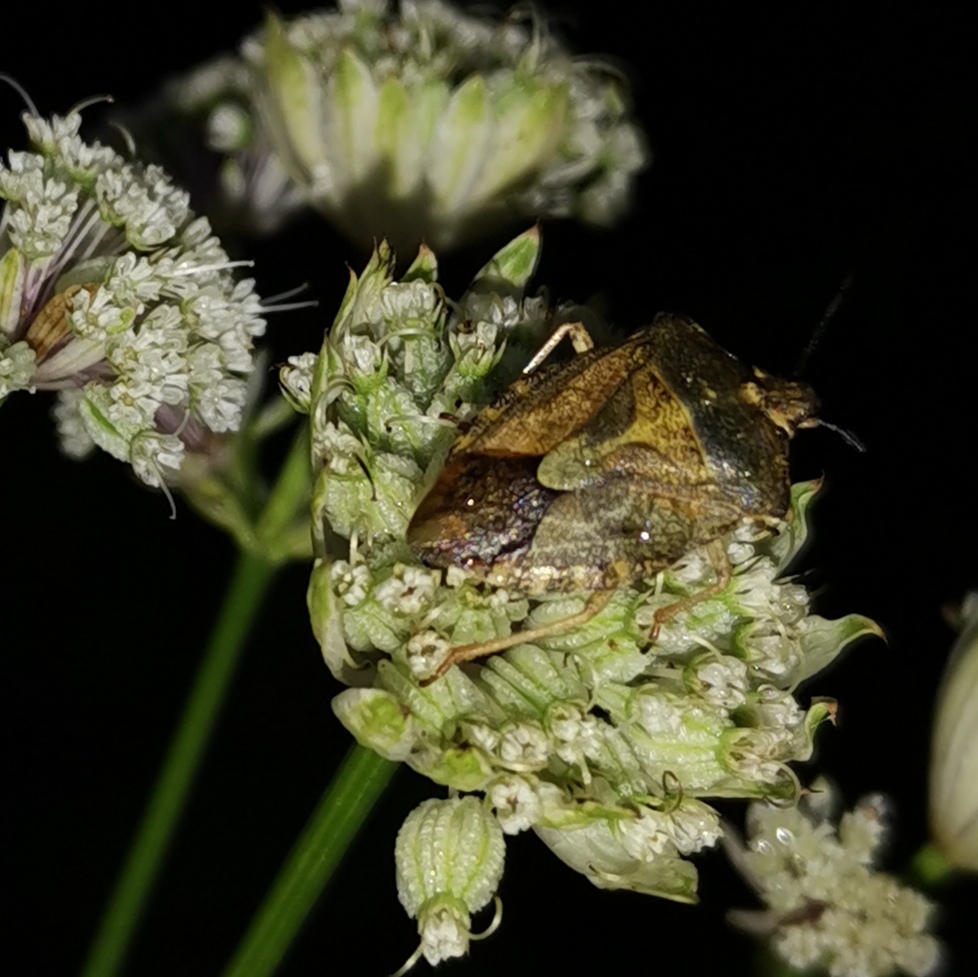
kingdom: Animalia
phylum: Arthropoda
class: Insecta
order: Hemiptera
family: Pentatomidae
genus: Carpocoris
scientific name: Carpocoris purpureipennis
